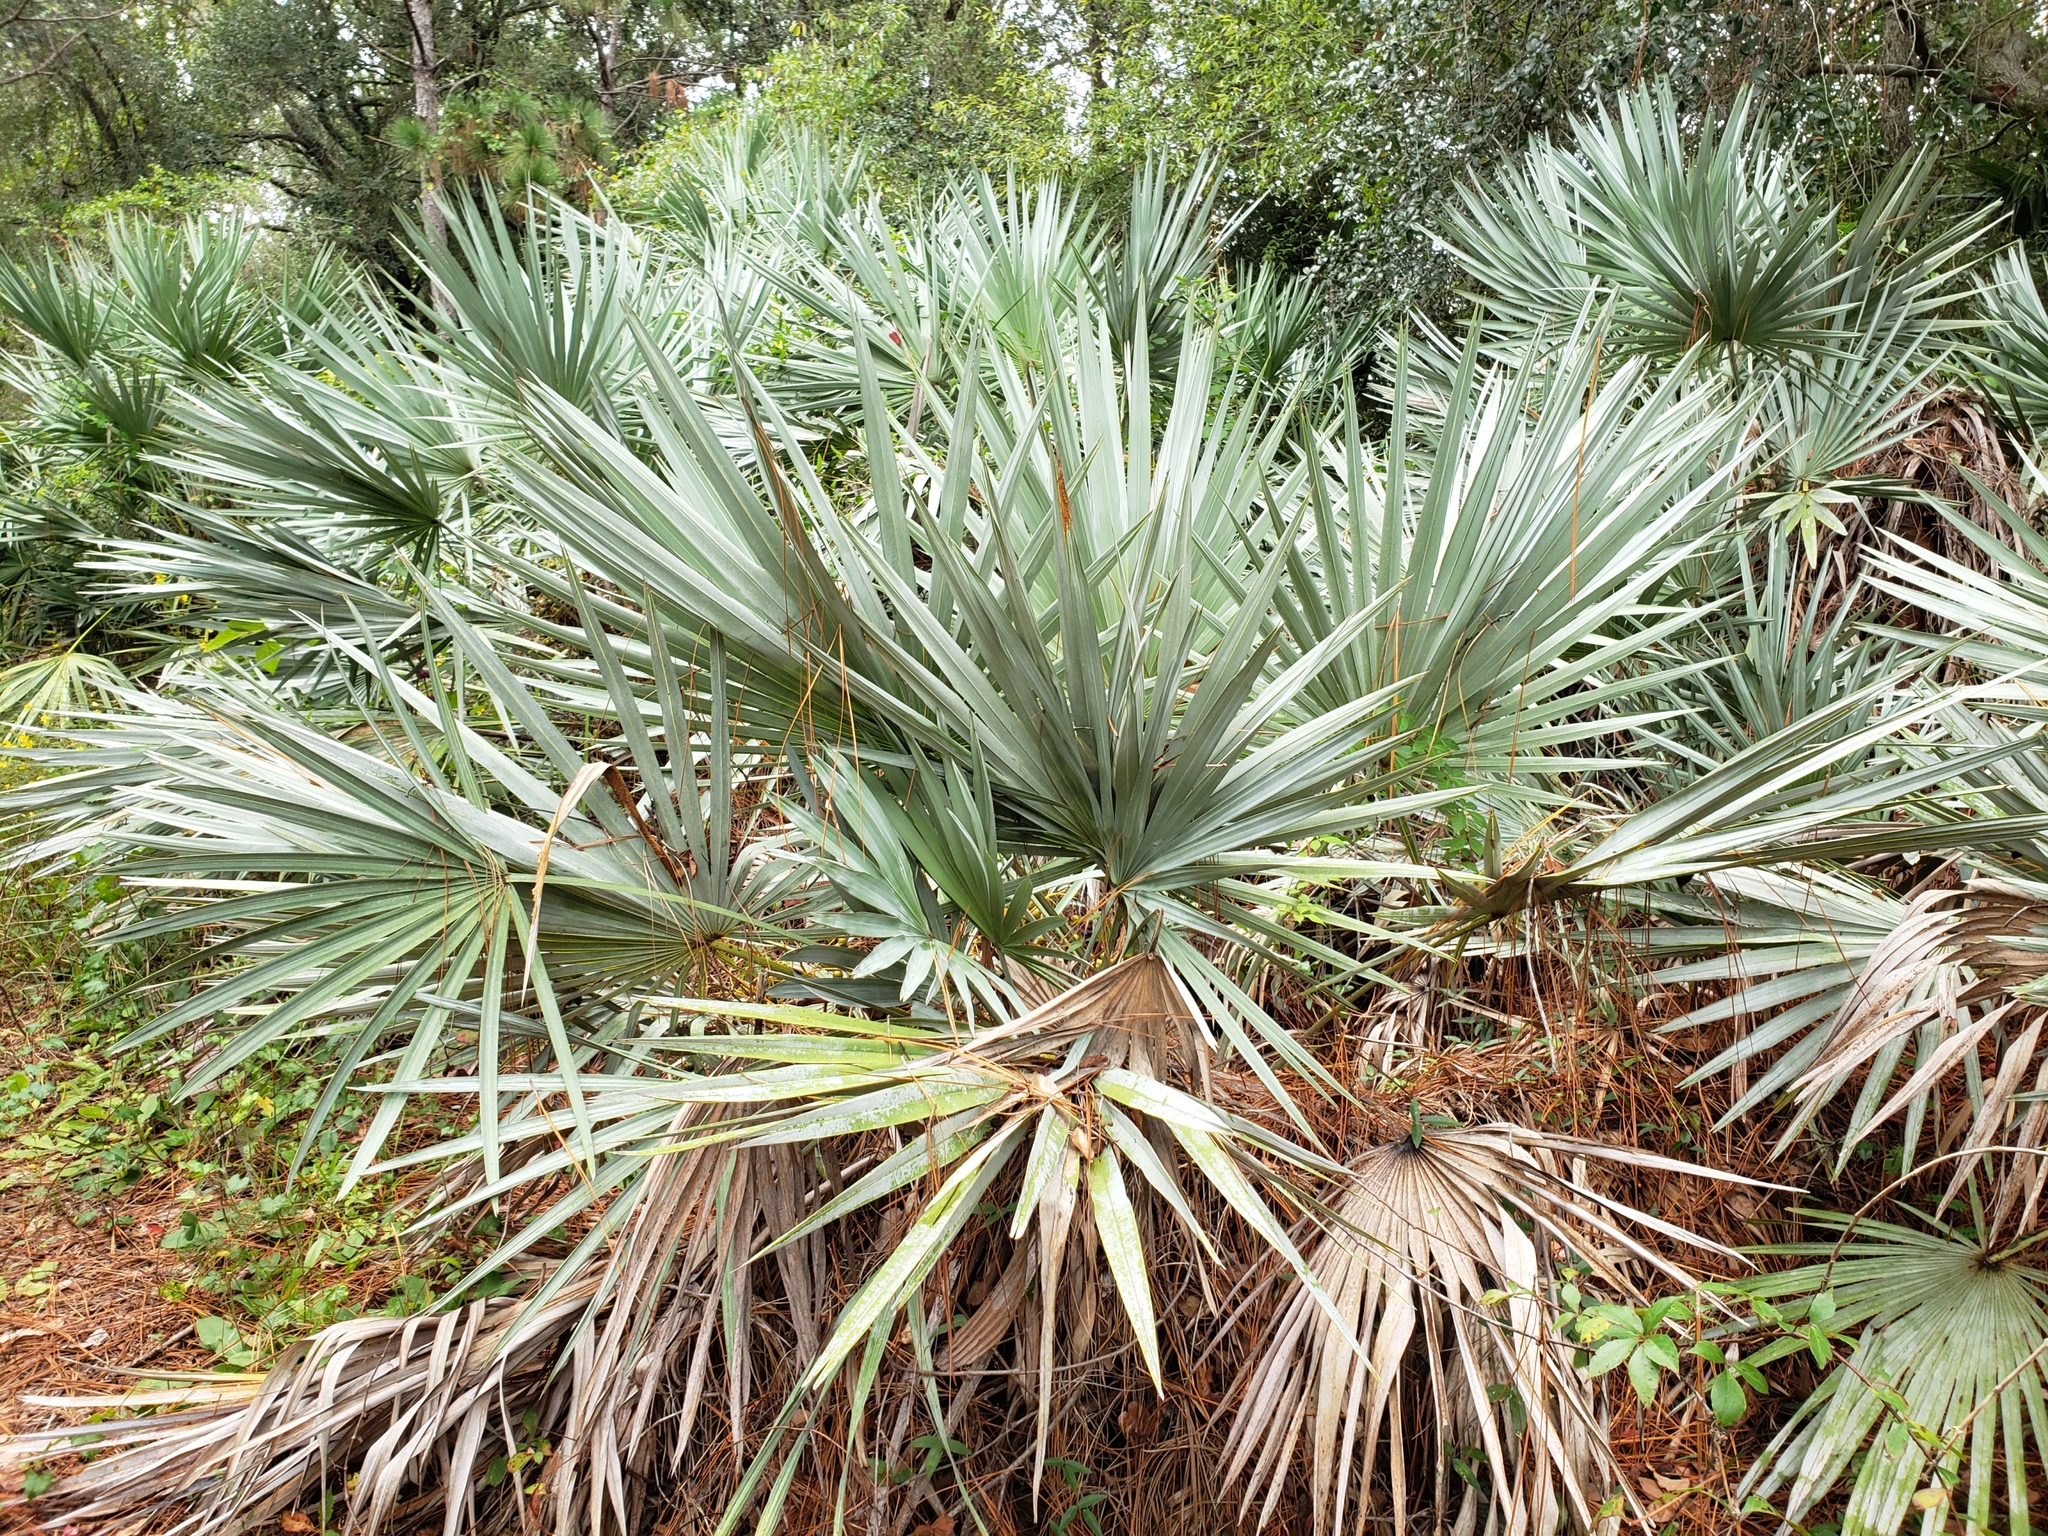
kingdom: Plantae
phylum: Tracheophyta
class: Liliopsida
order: Arecales
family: Arecaceae
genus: Serenoa
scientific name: Serenoa repens
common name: Saw-palmetto
